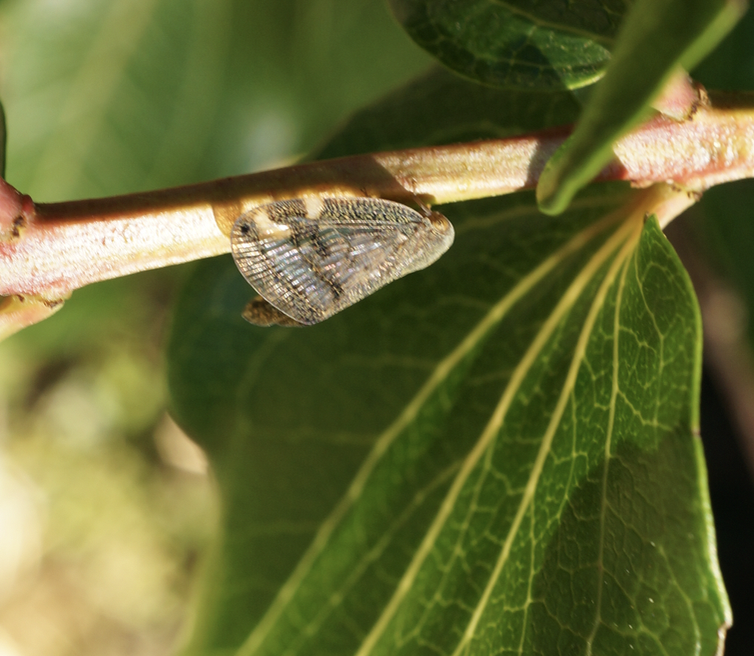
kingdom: Animalia
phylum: Arthropoda
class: Insecta
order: Hemiptera
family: Ricaniidae
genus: Scolypopa
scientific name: Scolypopa australis
